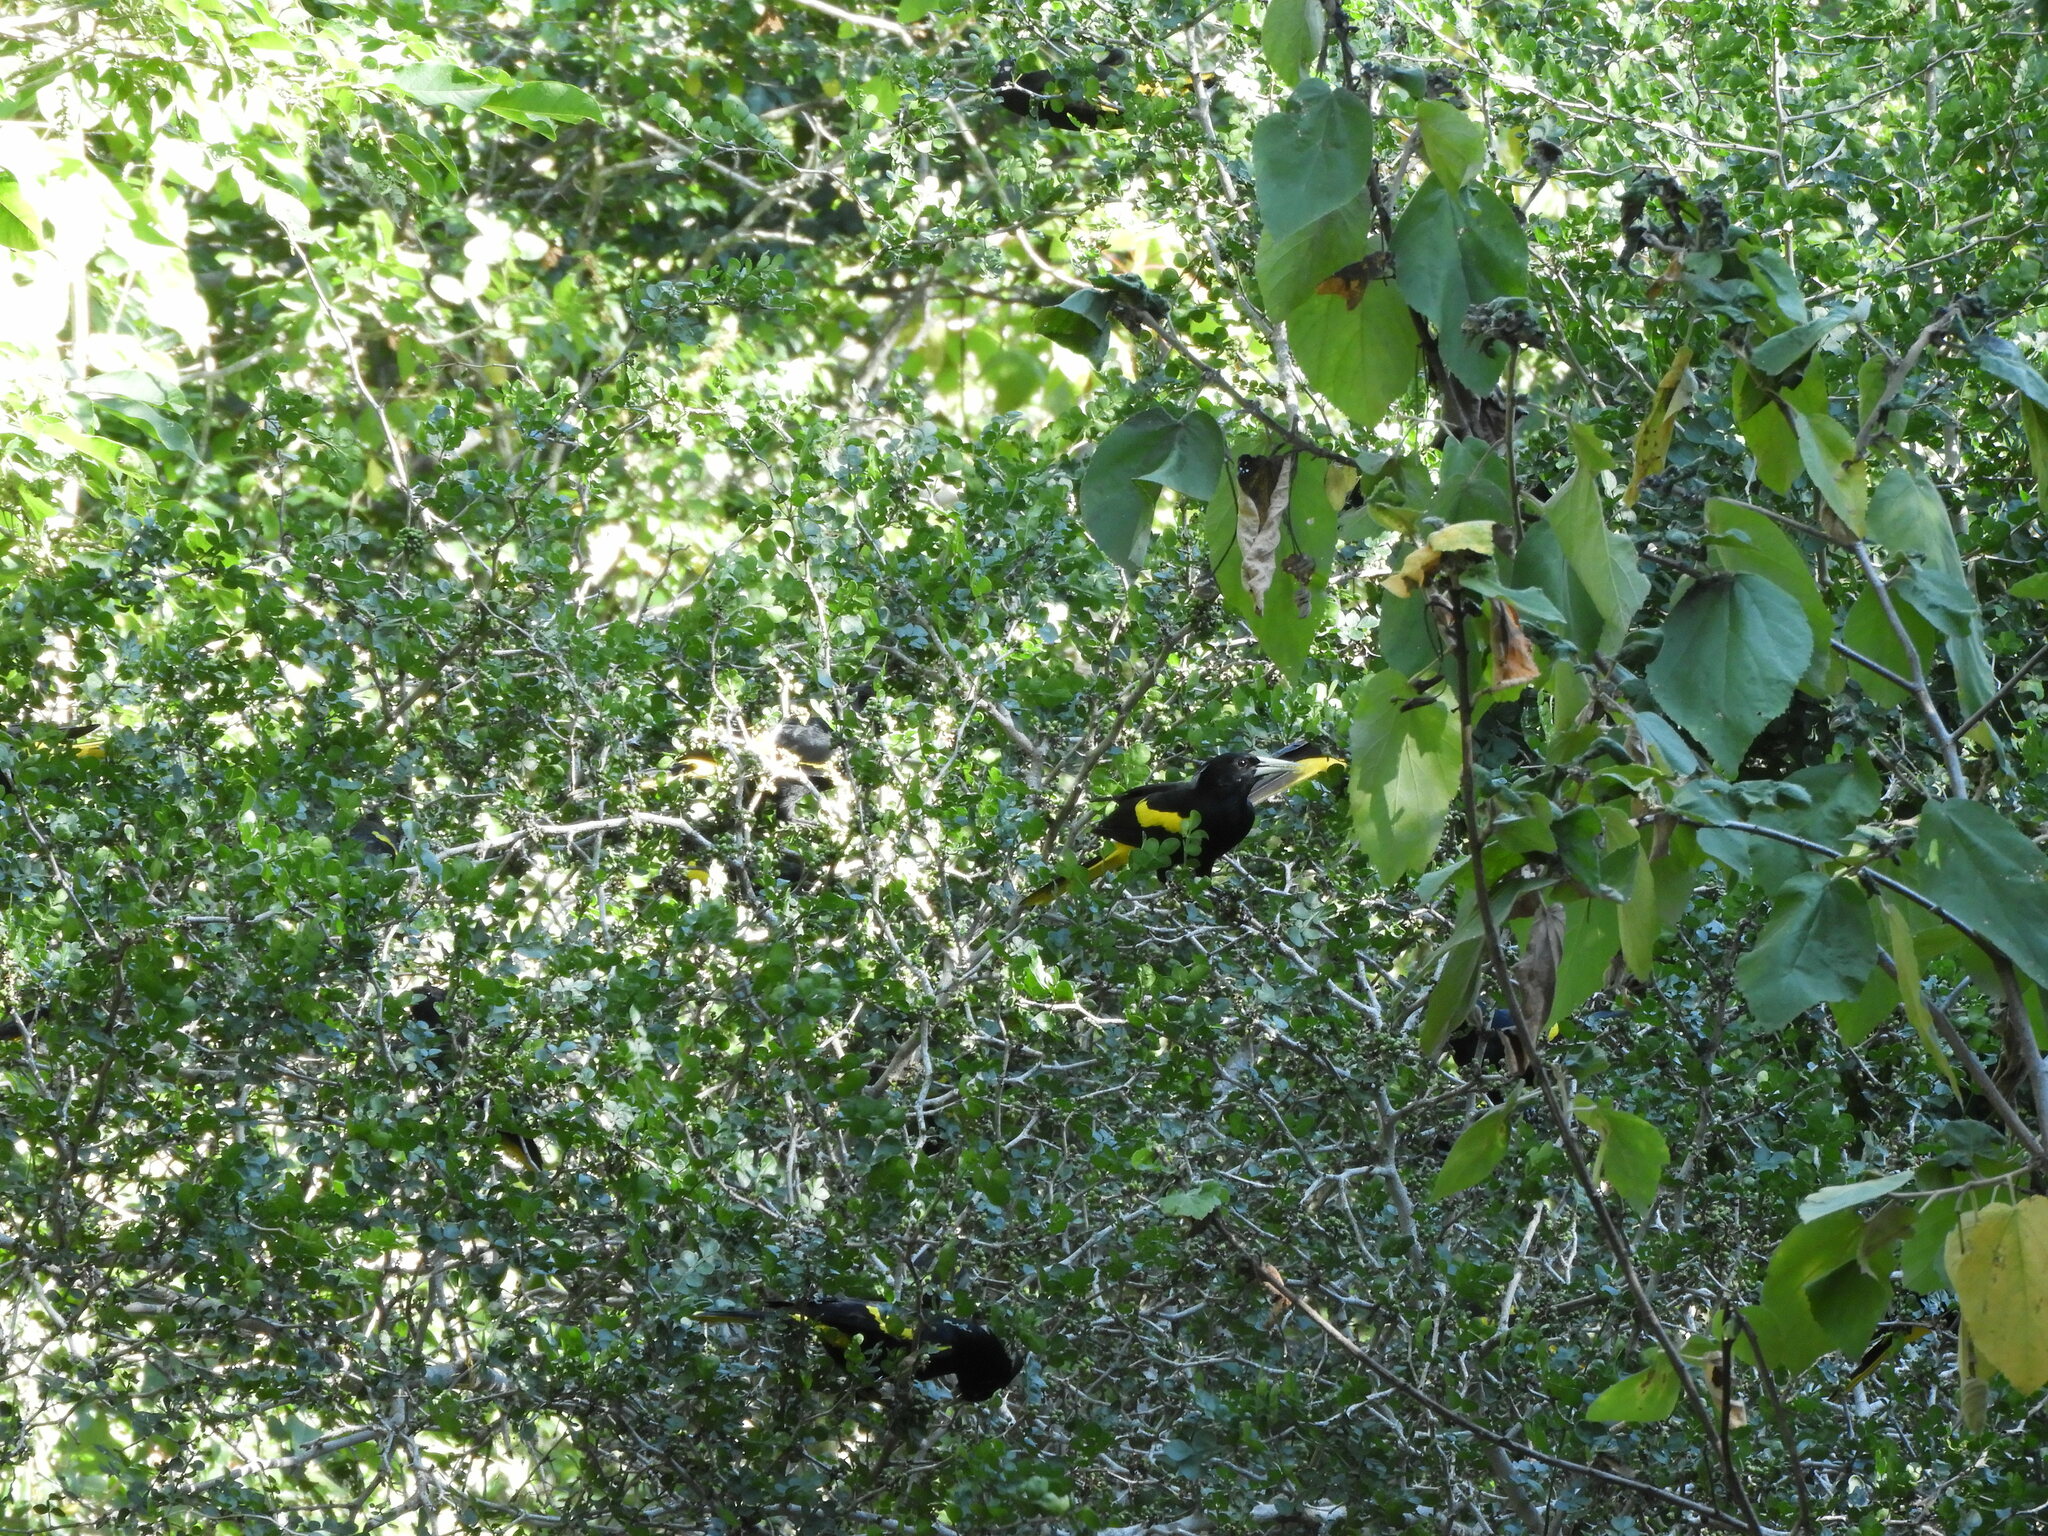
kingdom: Animalia
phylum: Chordata
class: Aves
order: Passeriformes
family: Icteridae
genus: Cacicus
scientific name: Cacicus melanicterus
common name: Yellow-winged cacique
